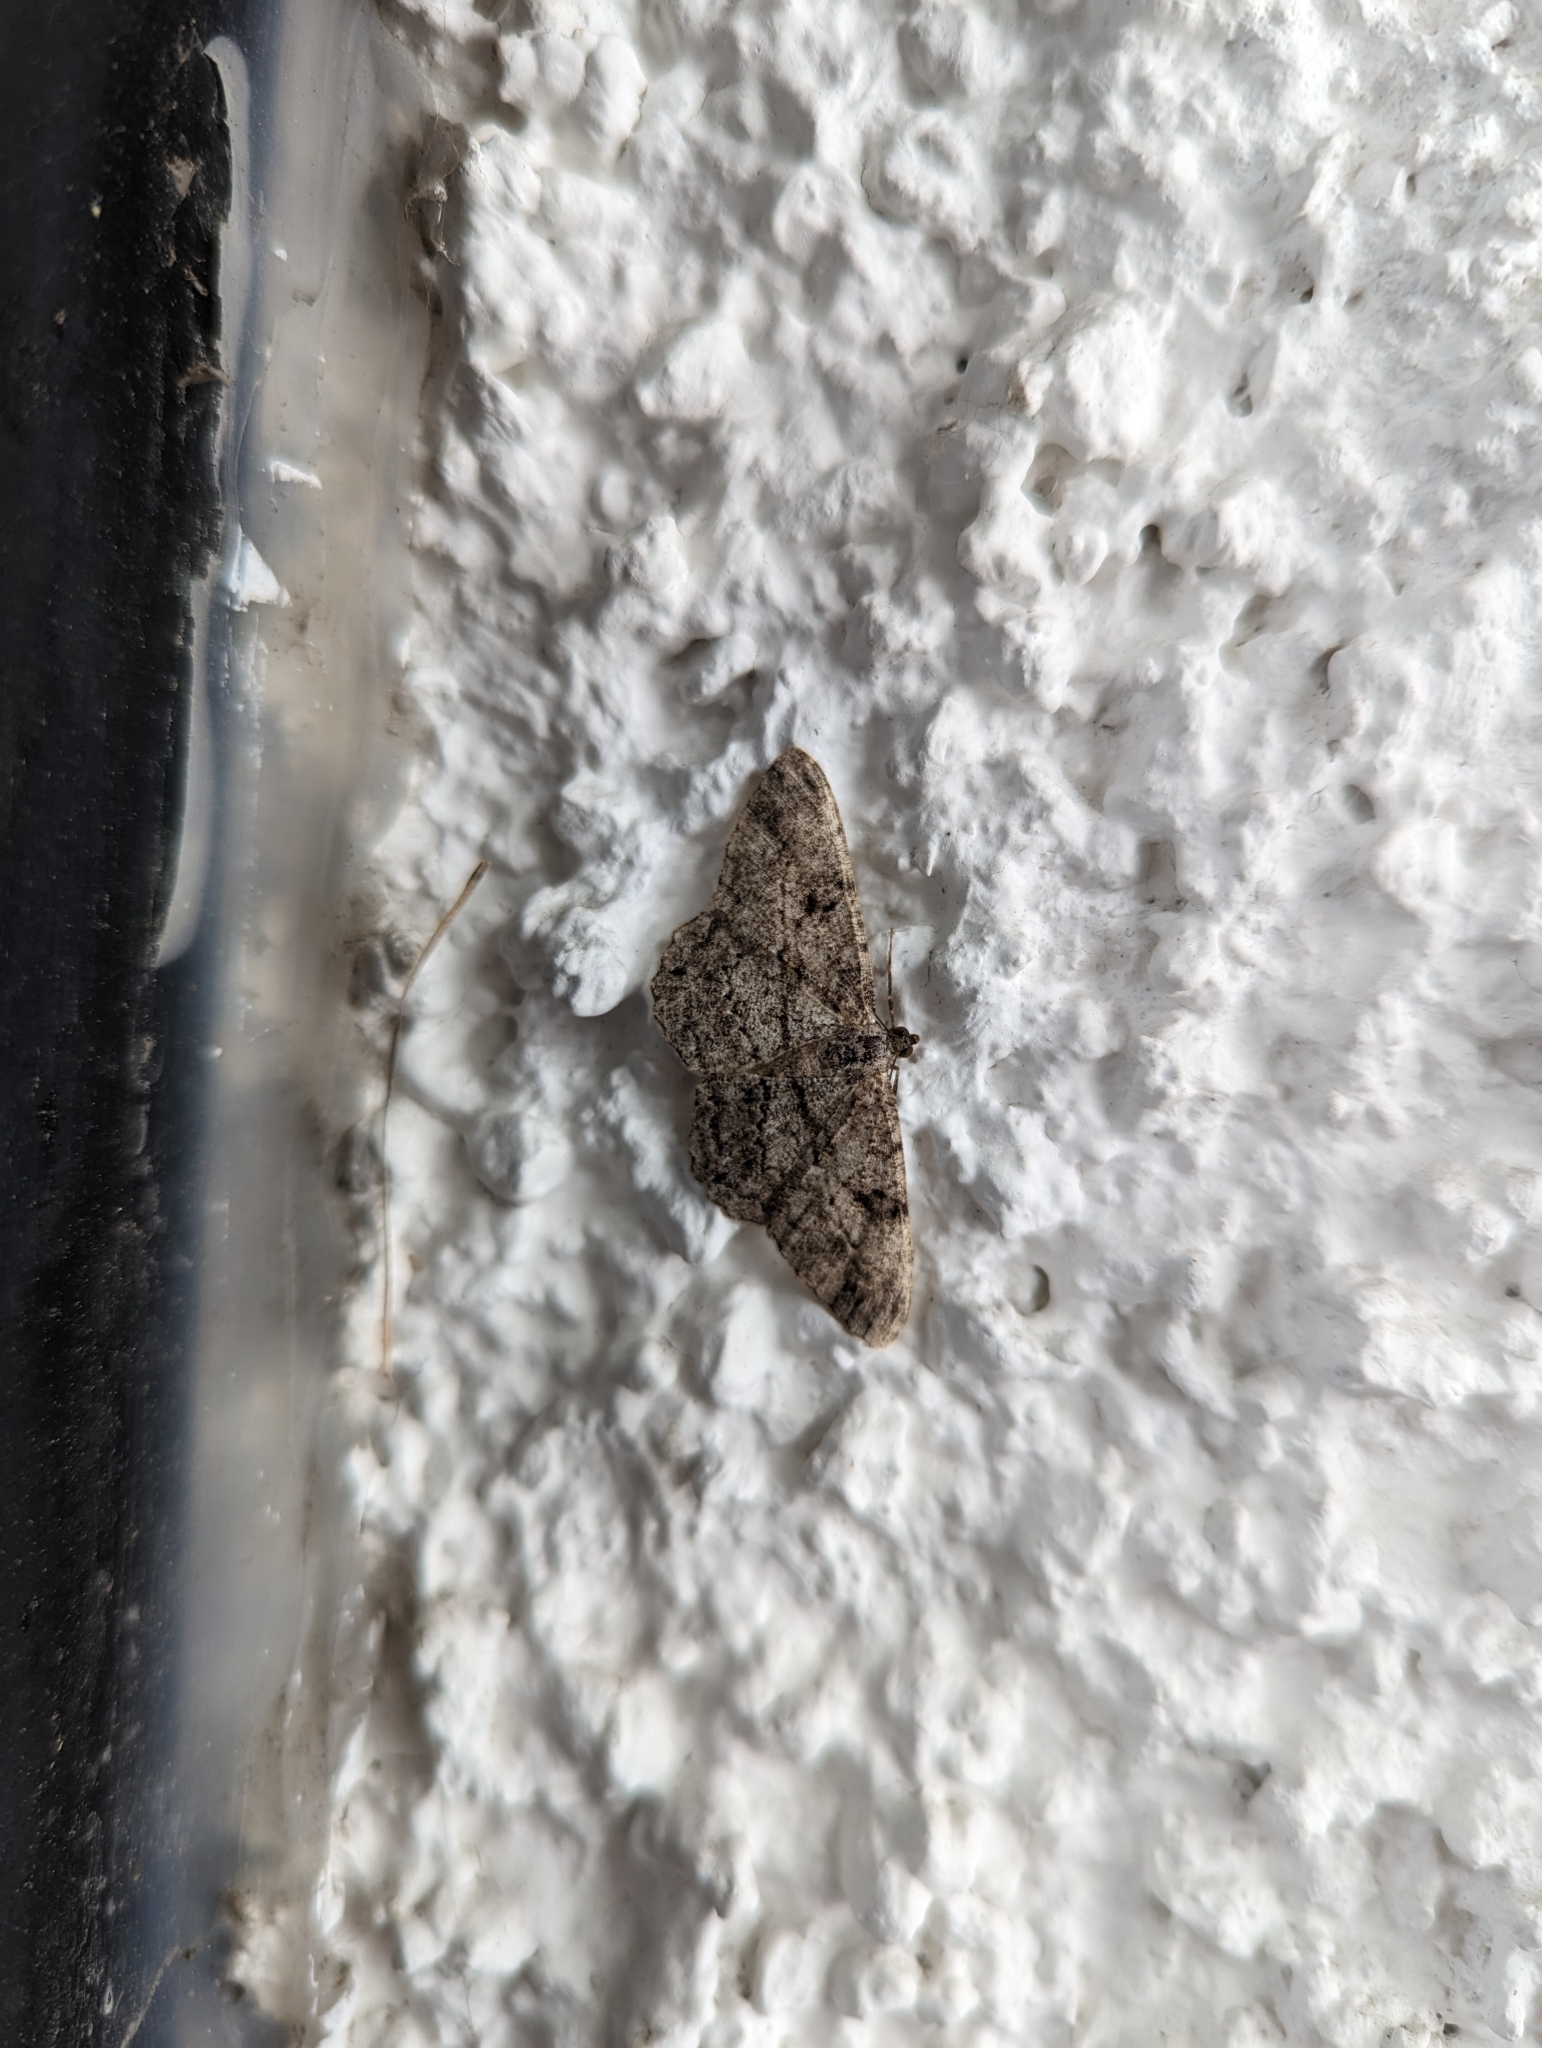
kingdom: Animalia
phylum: Arthropoda
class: Insecta
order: Lepidoptera
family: Geometridae
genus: Peribatodes
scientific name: Peribatodes rhomboidaria
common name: Willow beauty
